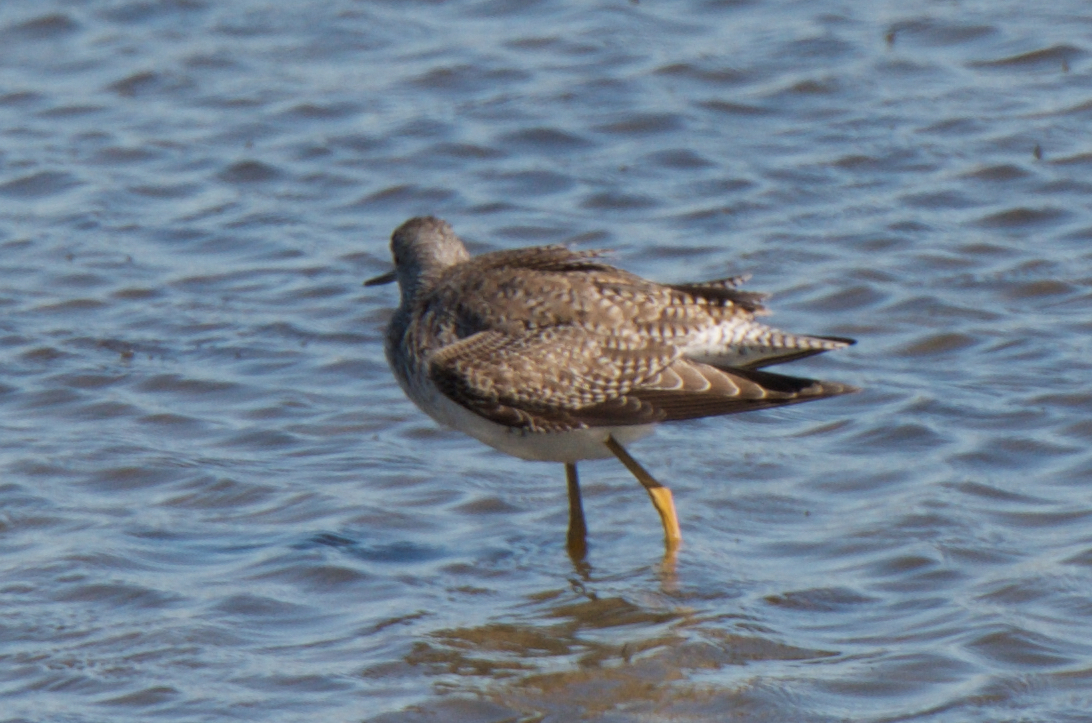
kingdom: Animalia
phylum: Chordata
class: Aves
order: Charadriiformes
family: Scolopacidae
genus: Tringa
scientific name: Tringa melanoleuca
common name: Greater yellowlegs
